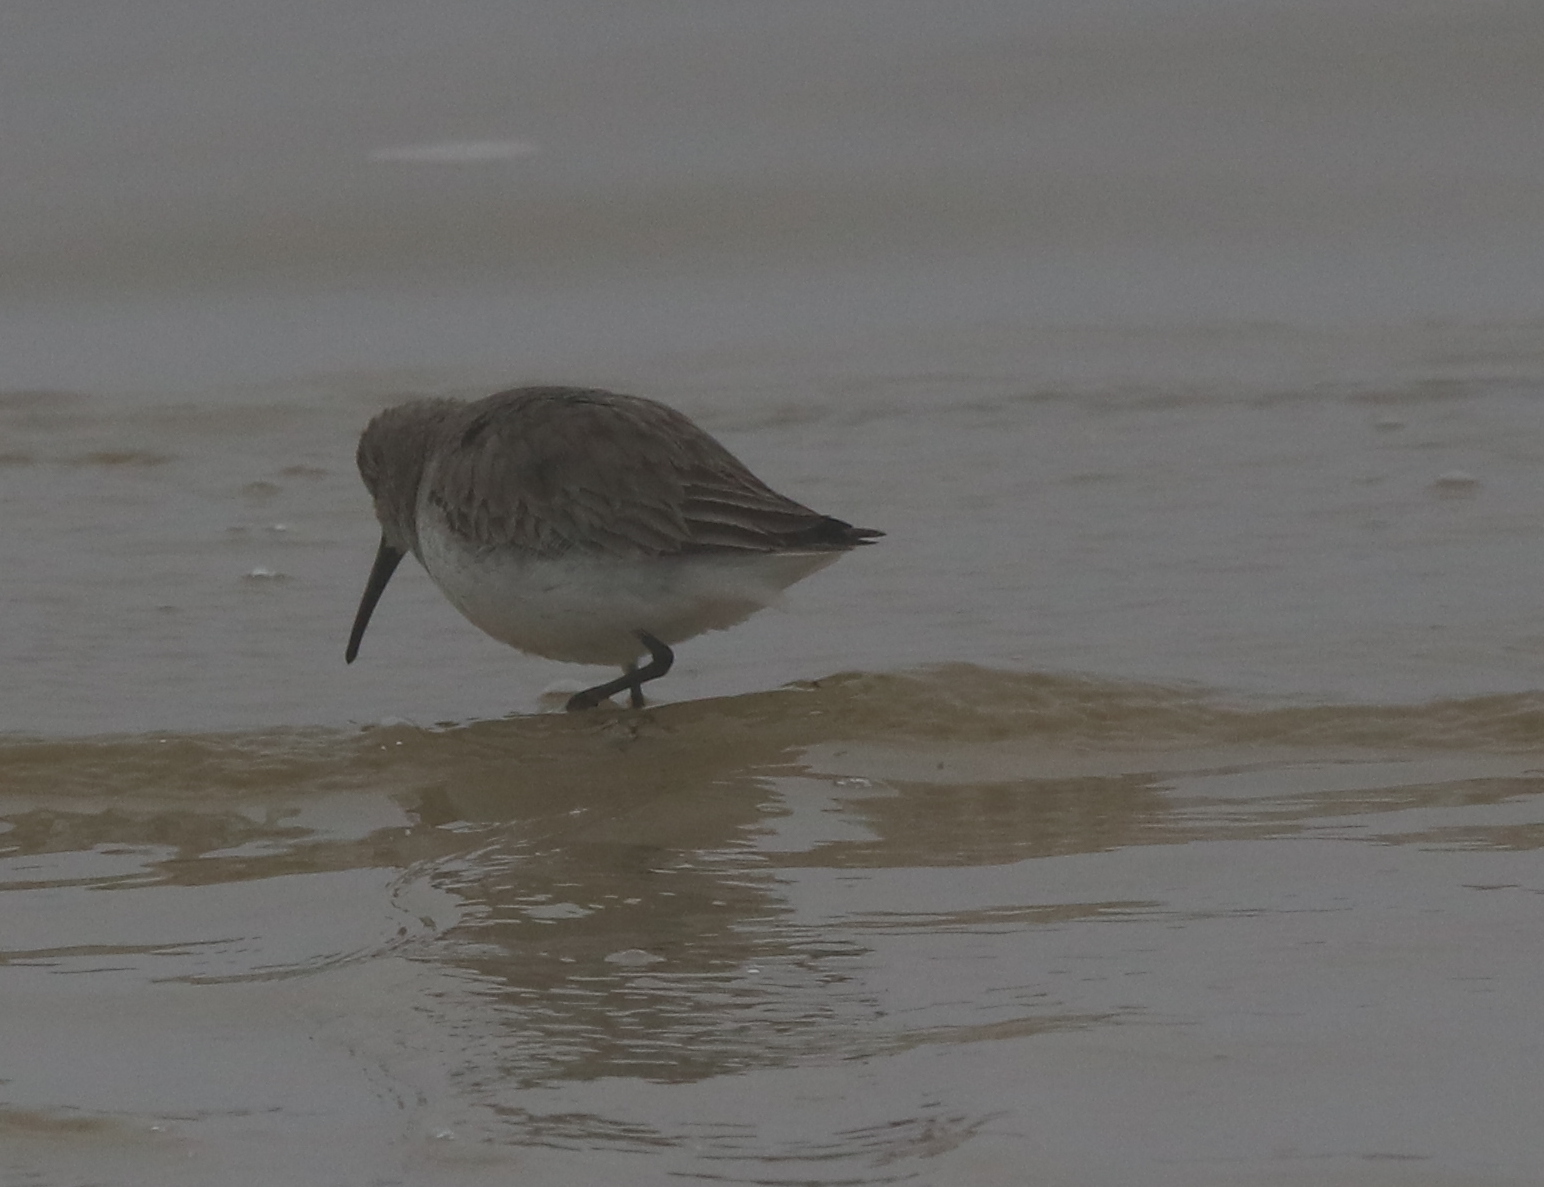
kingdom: Animalia
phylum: Chordata
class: Aves
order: Charadriiformes
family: Scolopacidae
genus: Calidris
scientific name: Calidris alpina
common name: Dunlin
